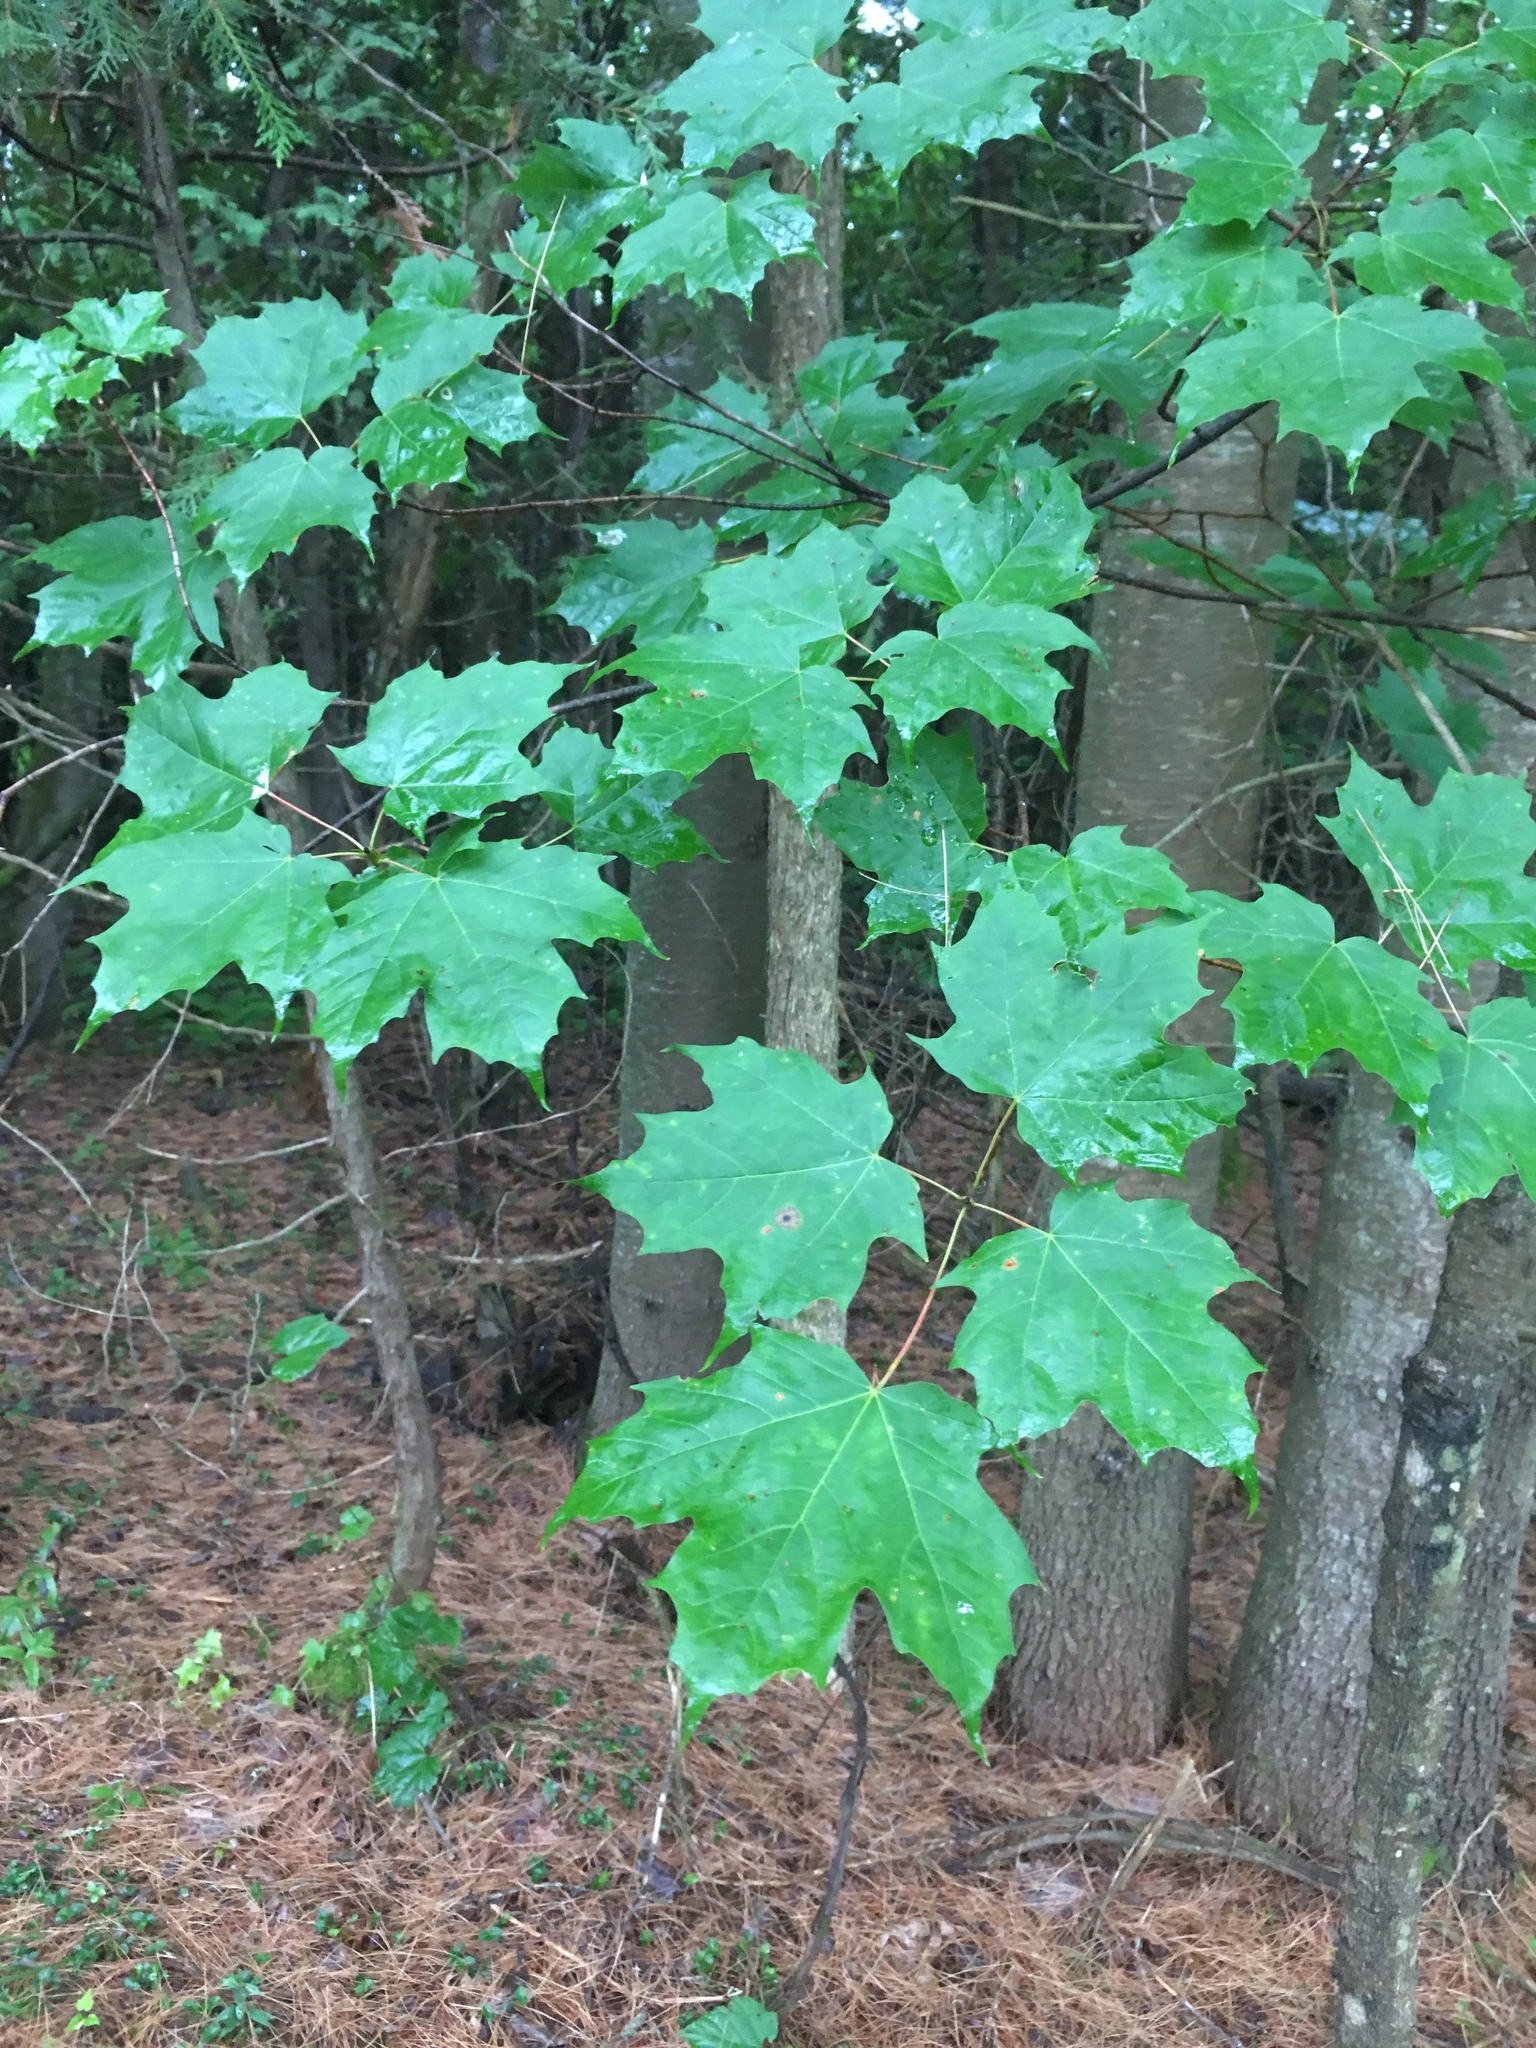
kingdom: Plantae
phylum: Tracheophyta
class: Magnoliopsida
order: Sapindales
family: Sapindaceae
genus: Acer
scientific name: Acer saccharum
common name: Sugar maple
